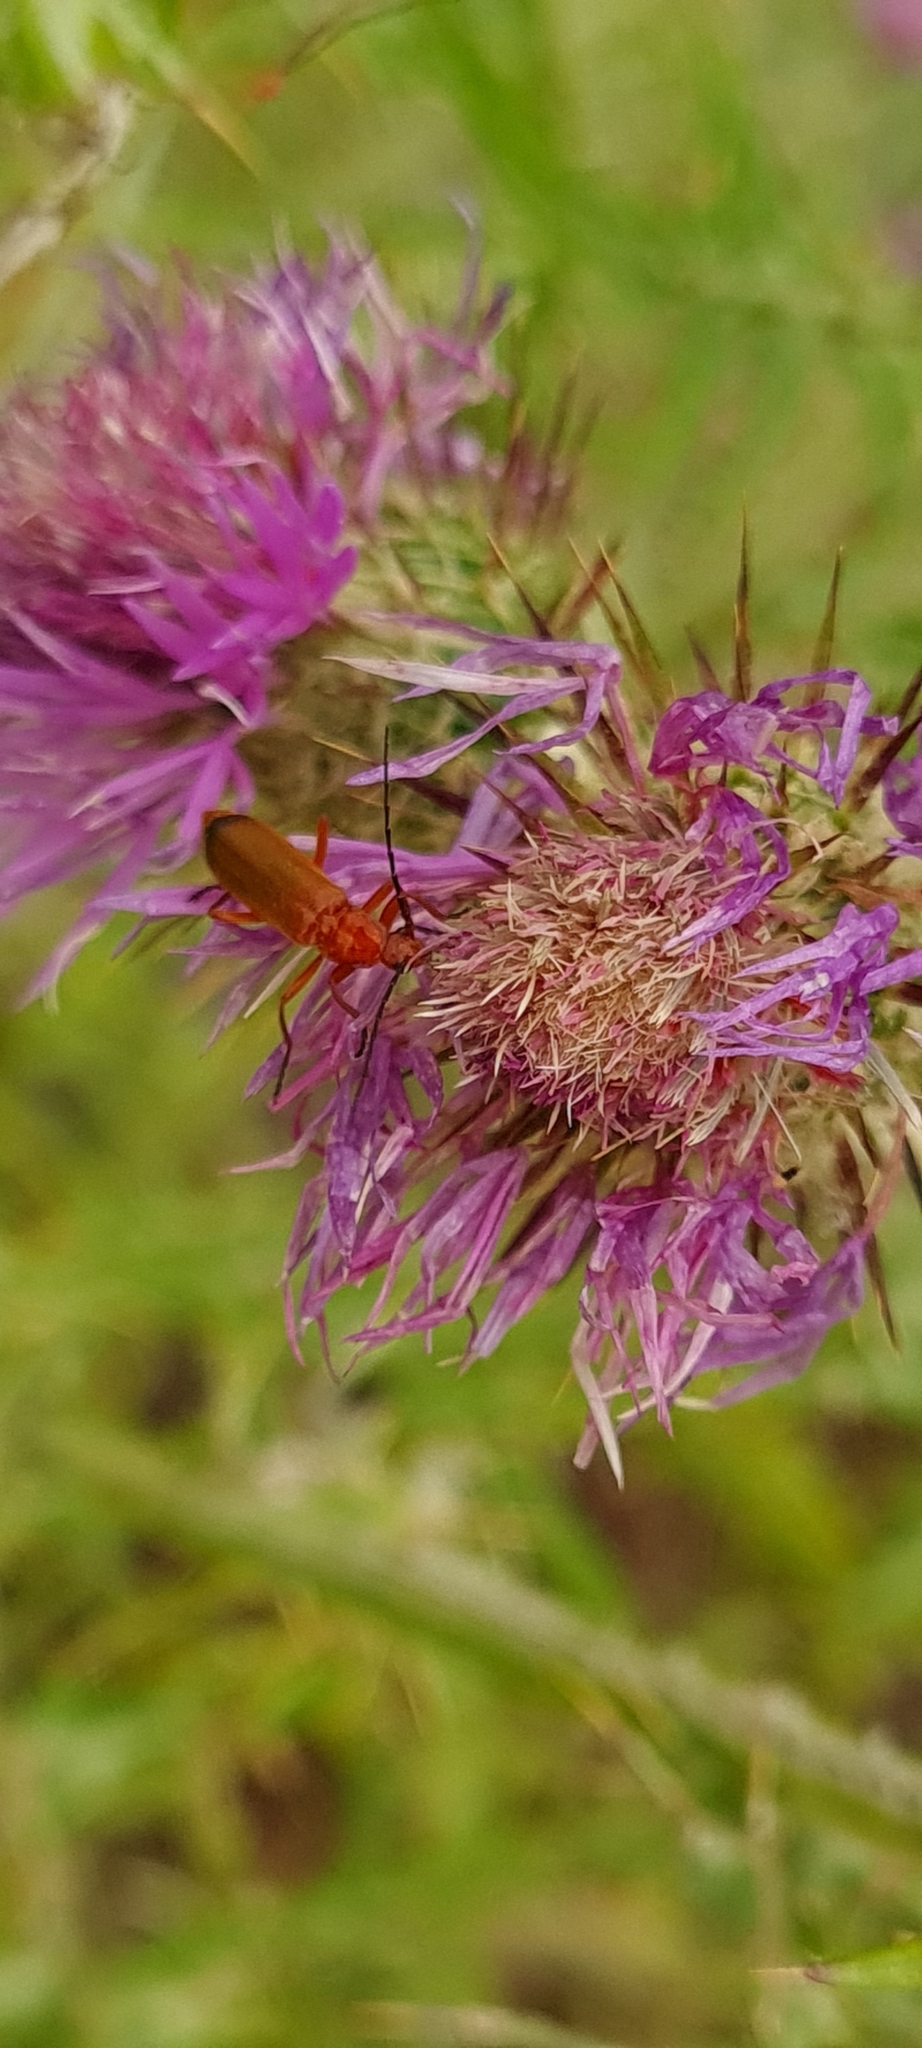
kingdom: Animalia
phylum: Arthropoda
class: Insecta
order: Coleoptera
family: Cantharidae
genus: Rhagonycha
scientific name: Rhagonycha fulva
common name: Common red soldier beetle
